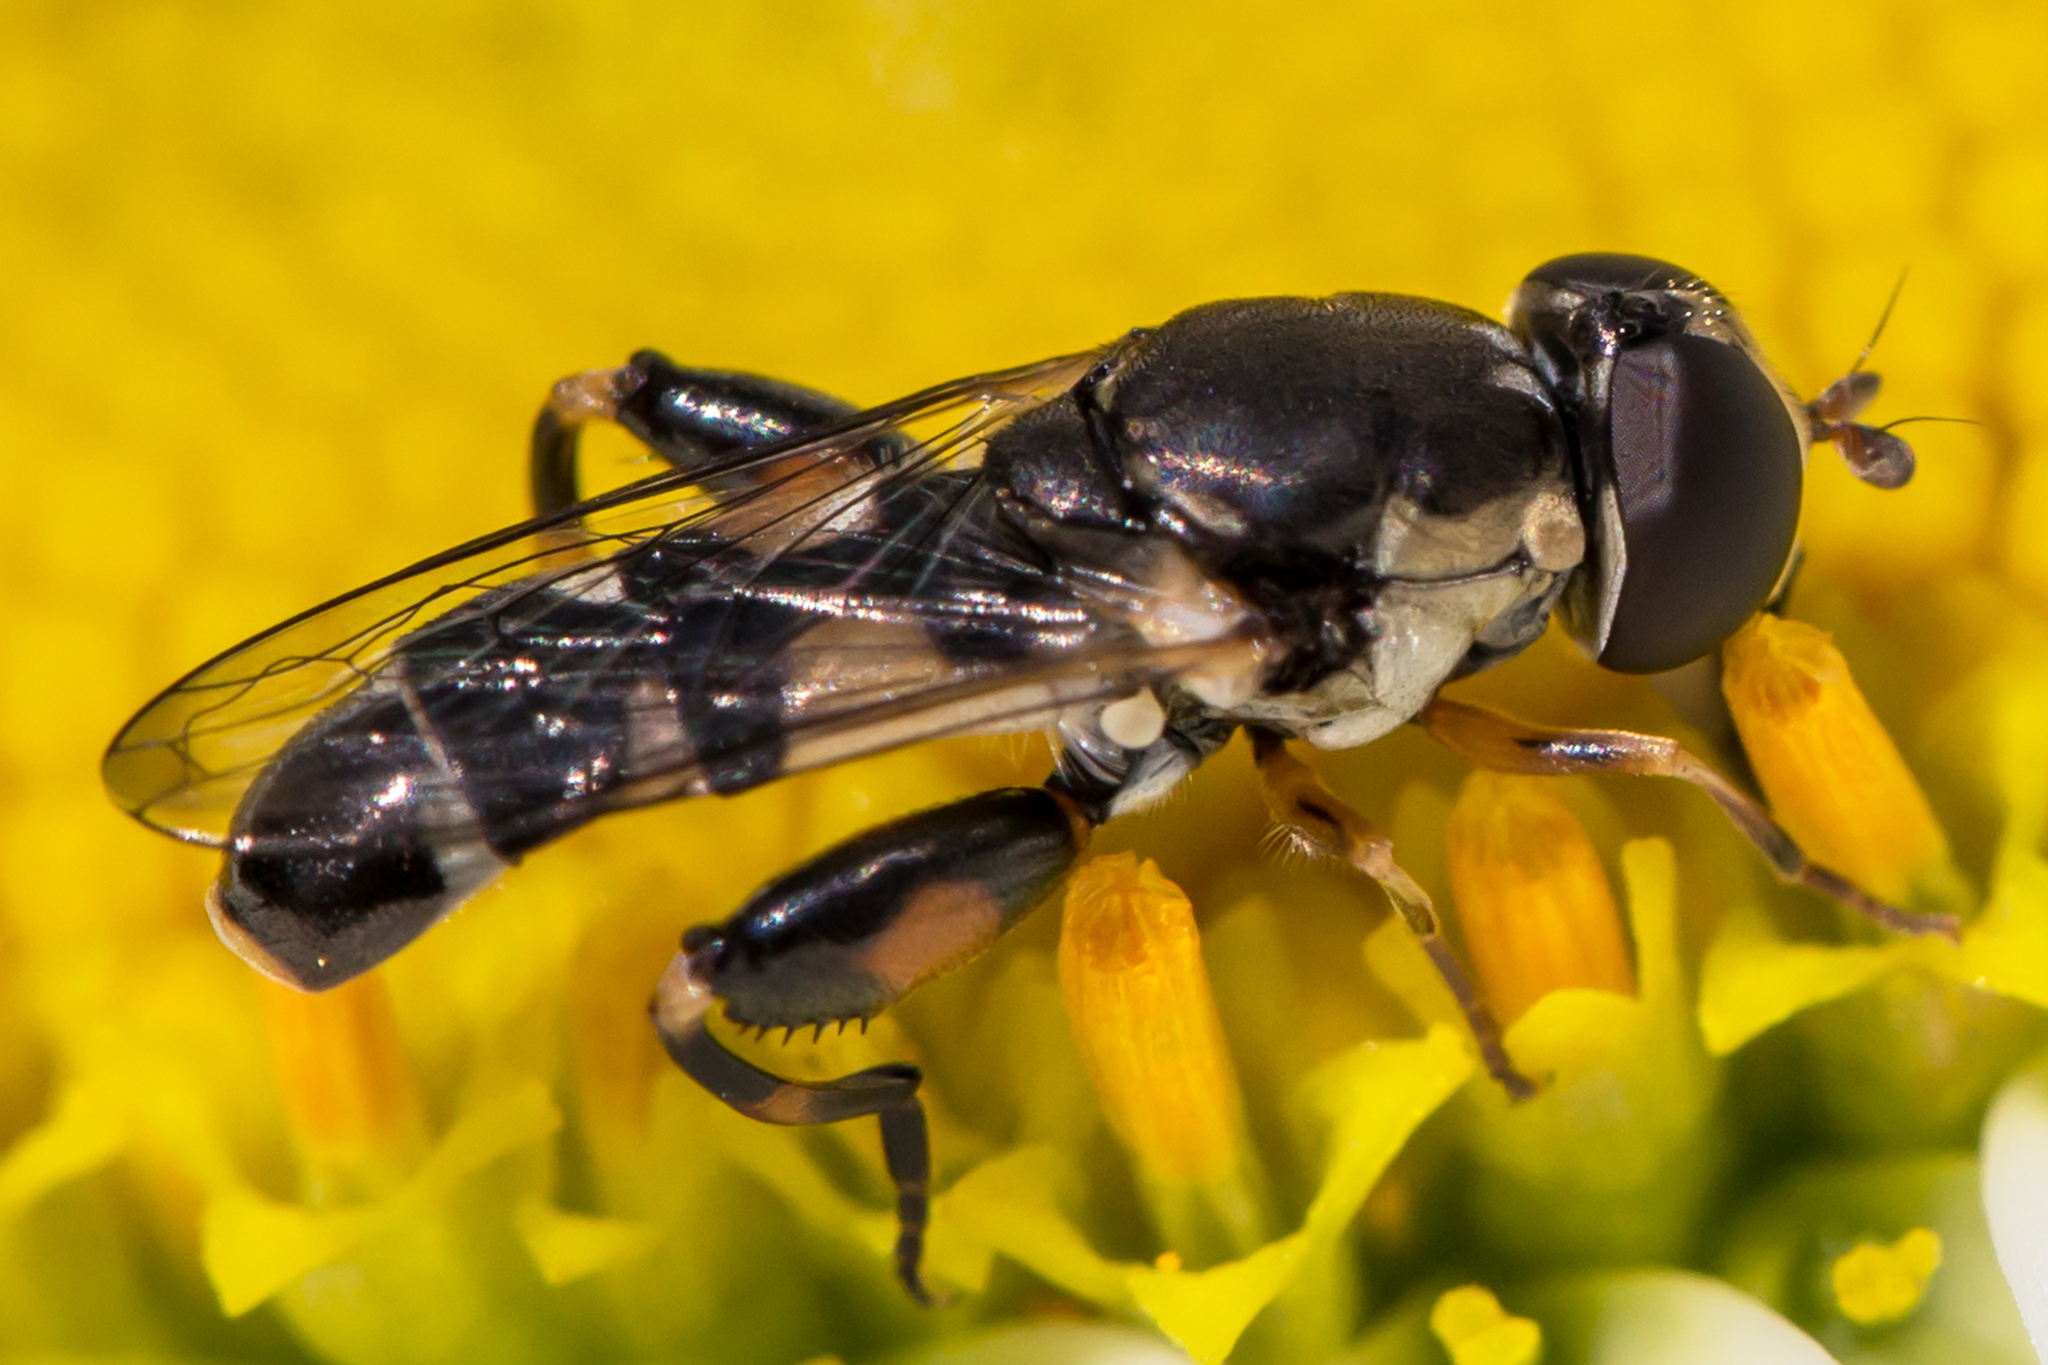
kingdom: Animalia
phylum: Arthropoda
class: Insecta
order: Diptera
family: Syrphidae
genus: Syritta
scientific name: Syritta pipiens
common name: Hover fly
